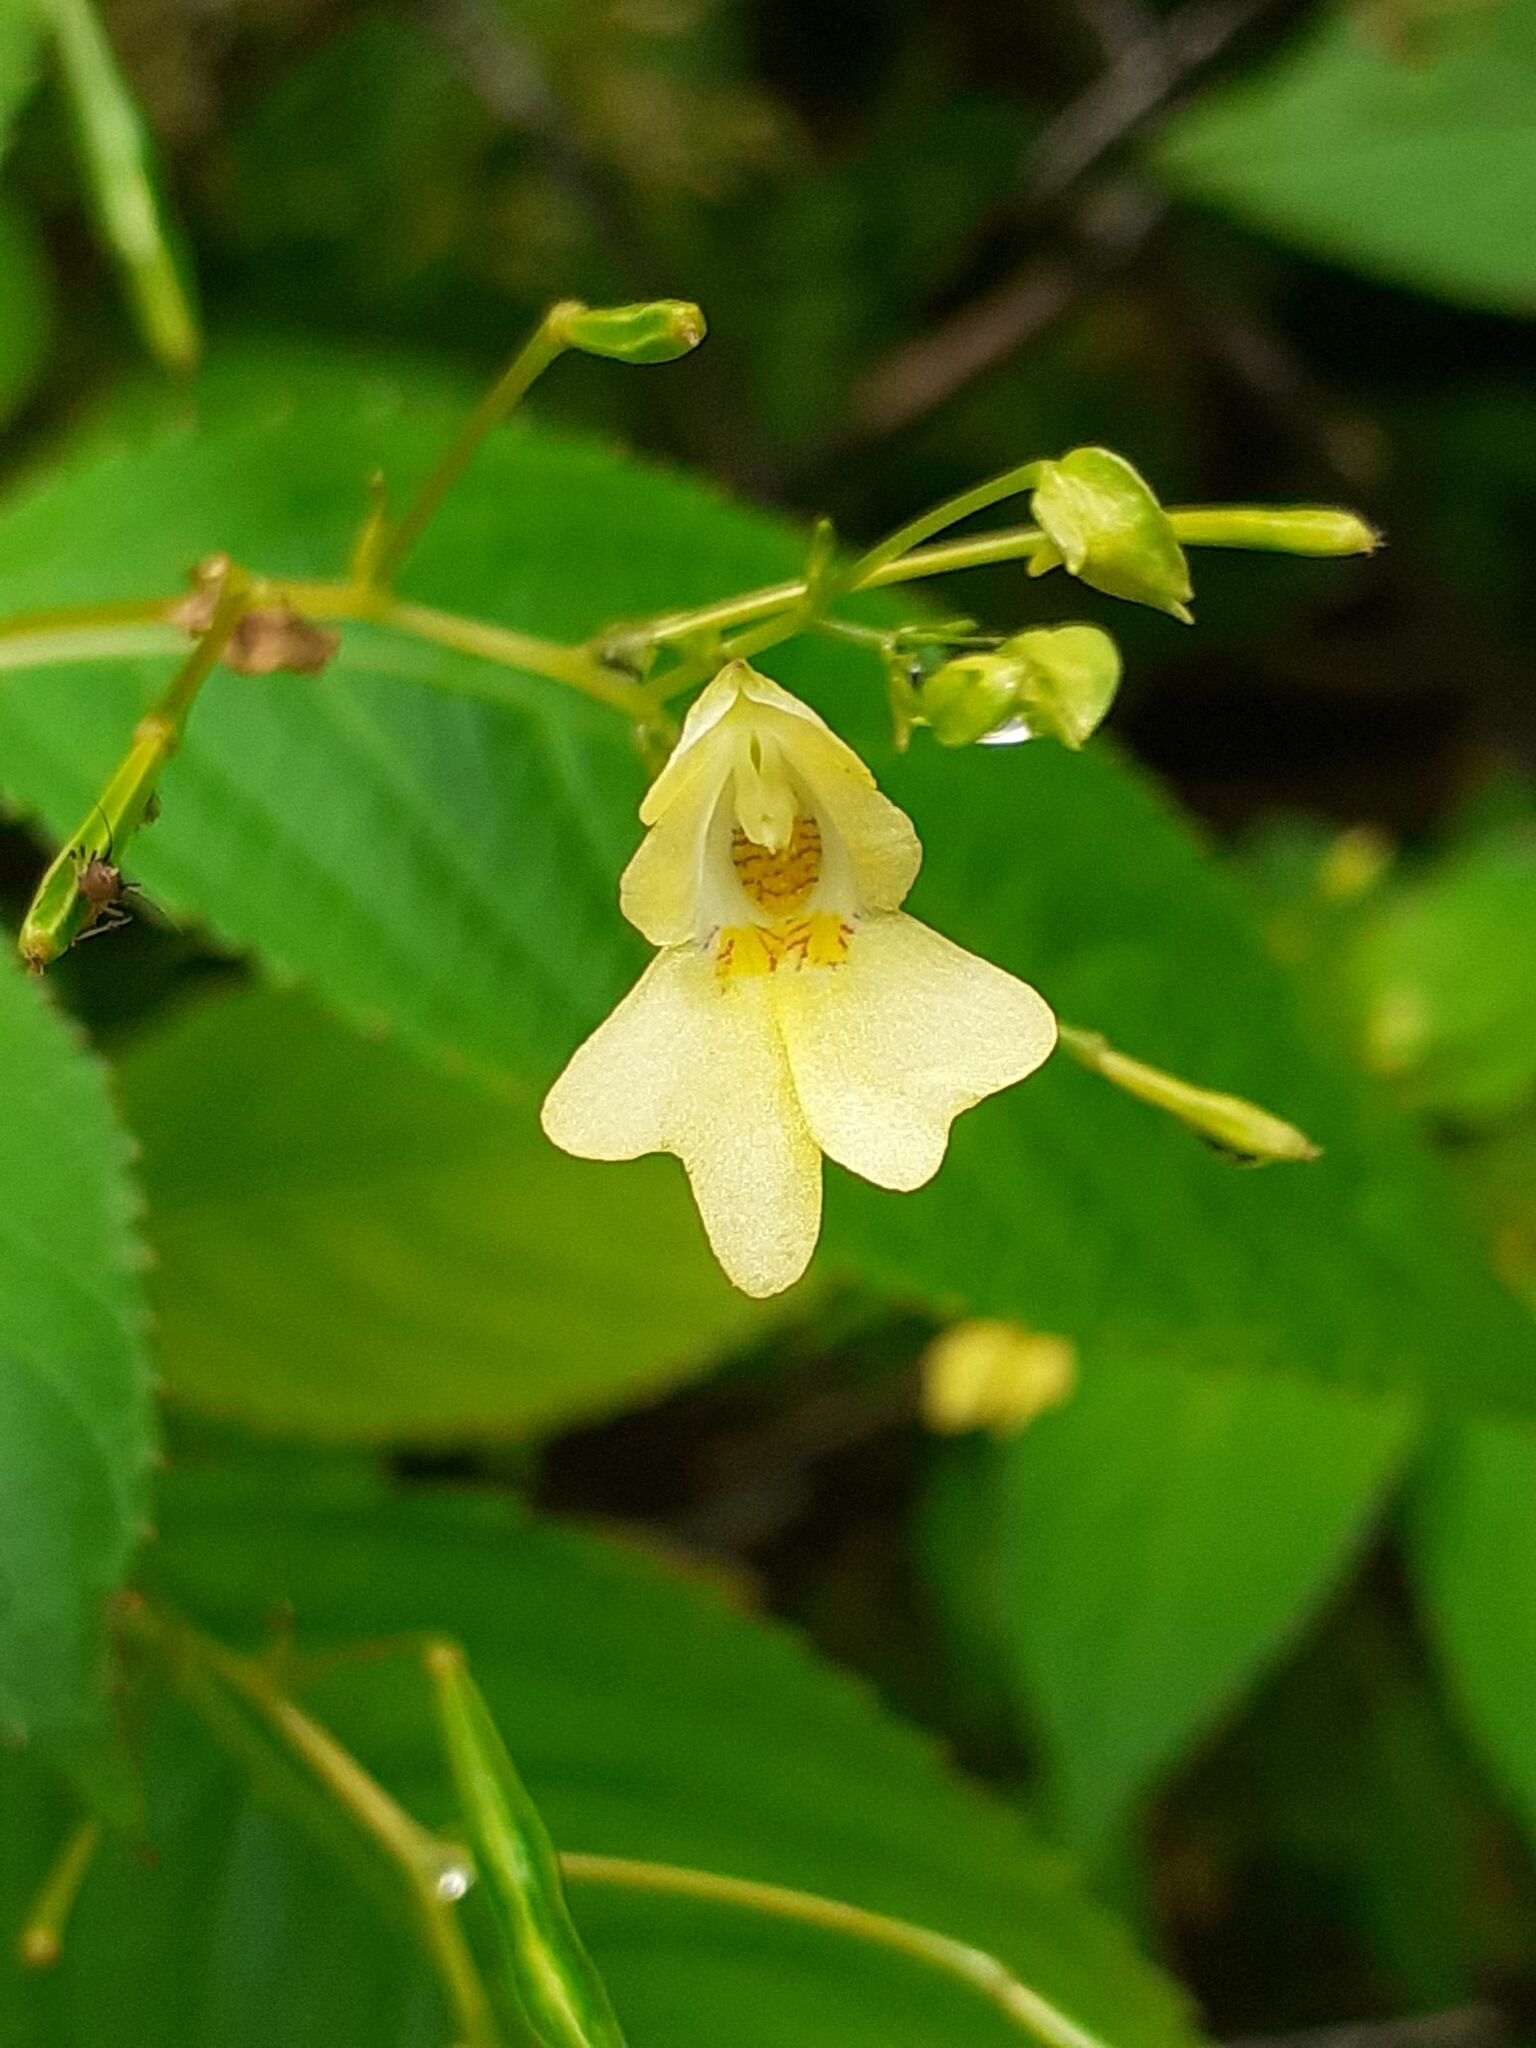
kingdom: Plantae
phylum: Tracheophyta
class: Magnoliopsida
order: Ericales
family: Balsaminaceae
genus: Impatiens
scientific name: Impatiens parviflora
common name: Small balsam
